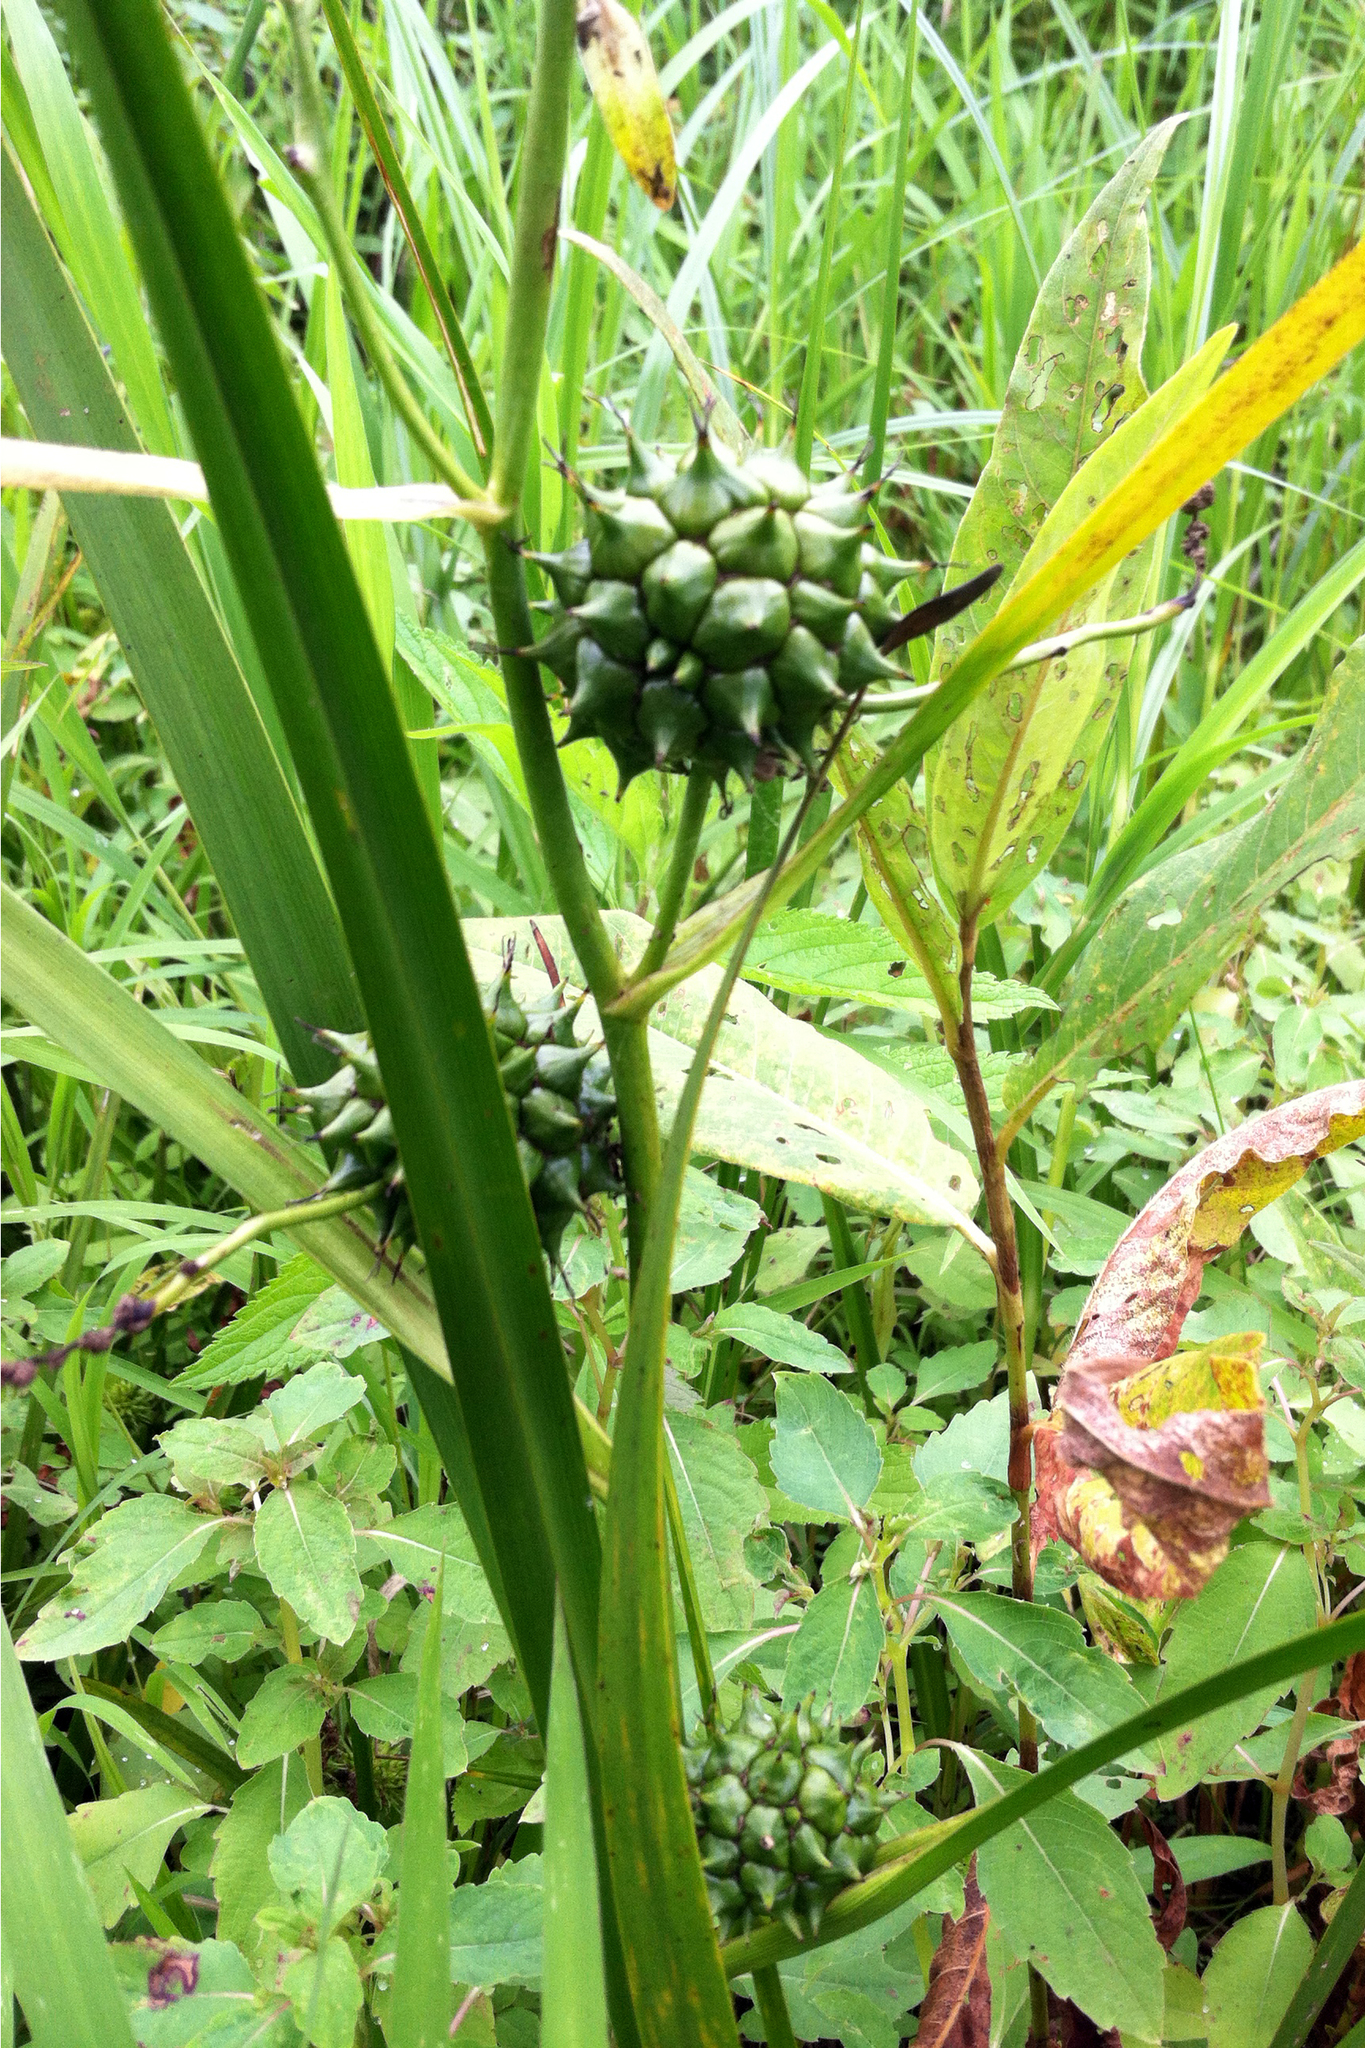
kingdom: Plantae
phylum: Tracheophyta
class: Liliopsida
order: Poales
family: Typhaceae
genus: Sparganium
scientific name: Sparganium eurycarpum
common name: Broad-fruited burreed
